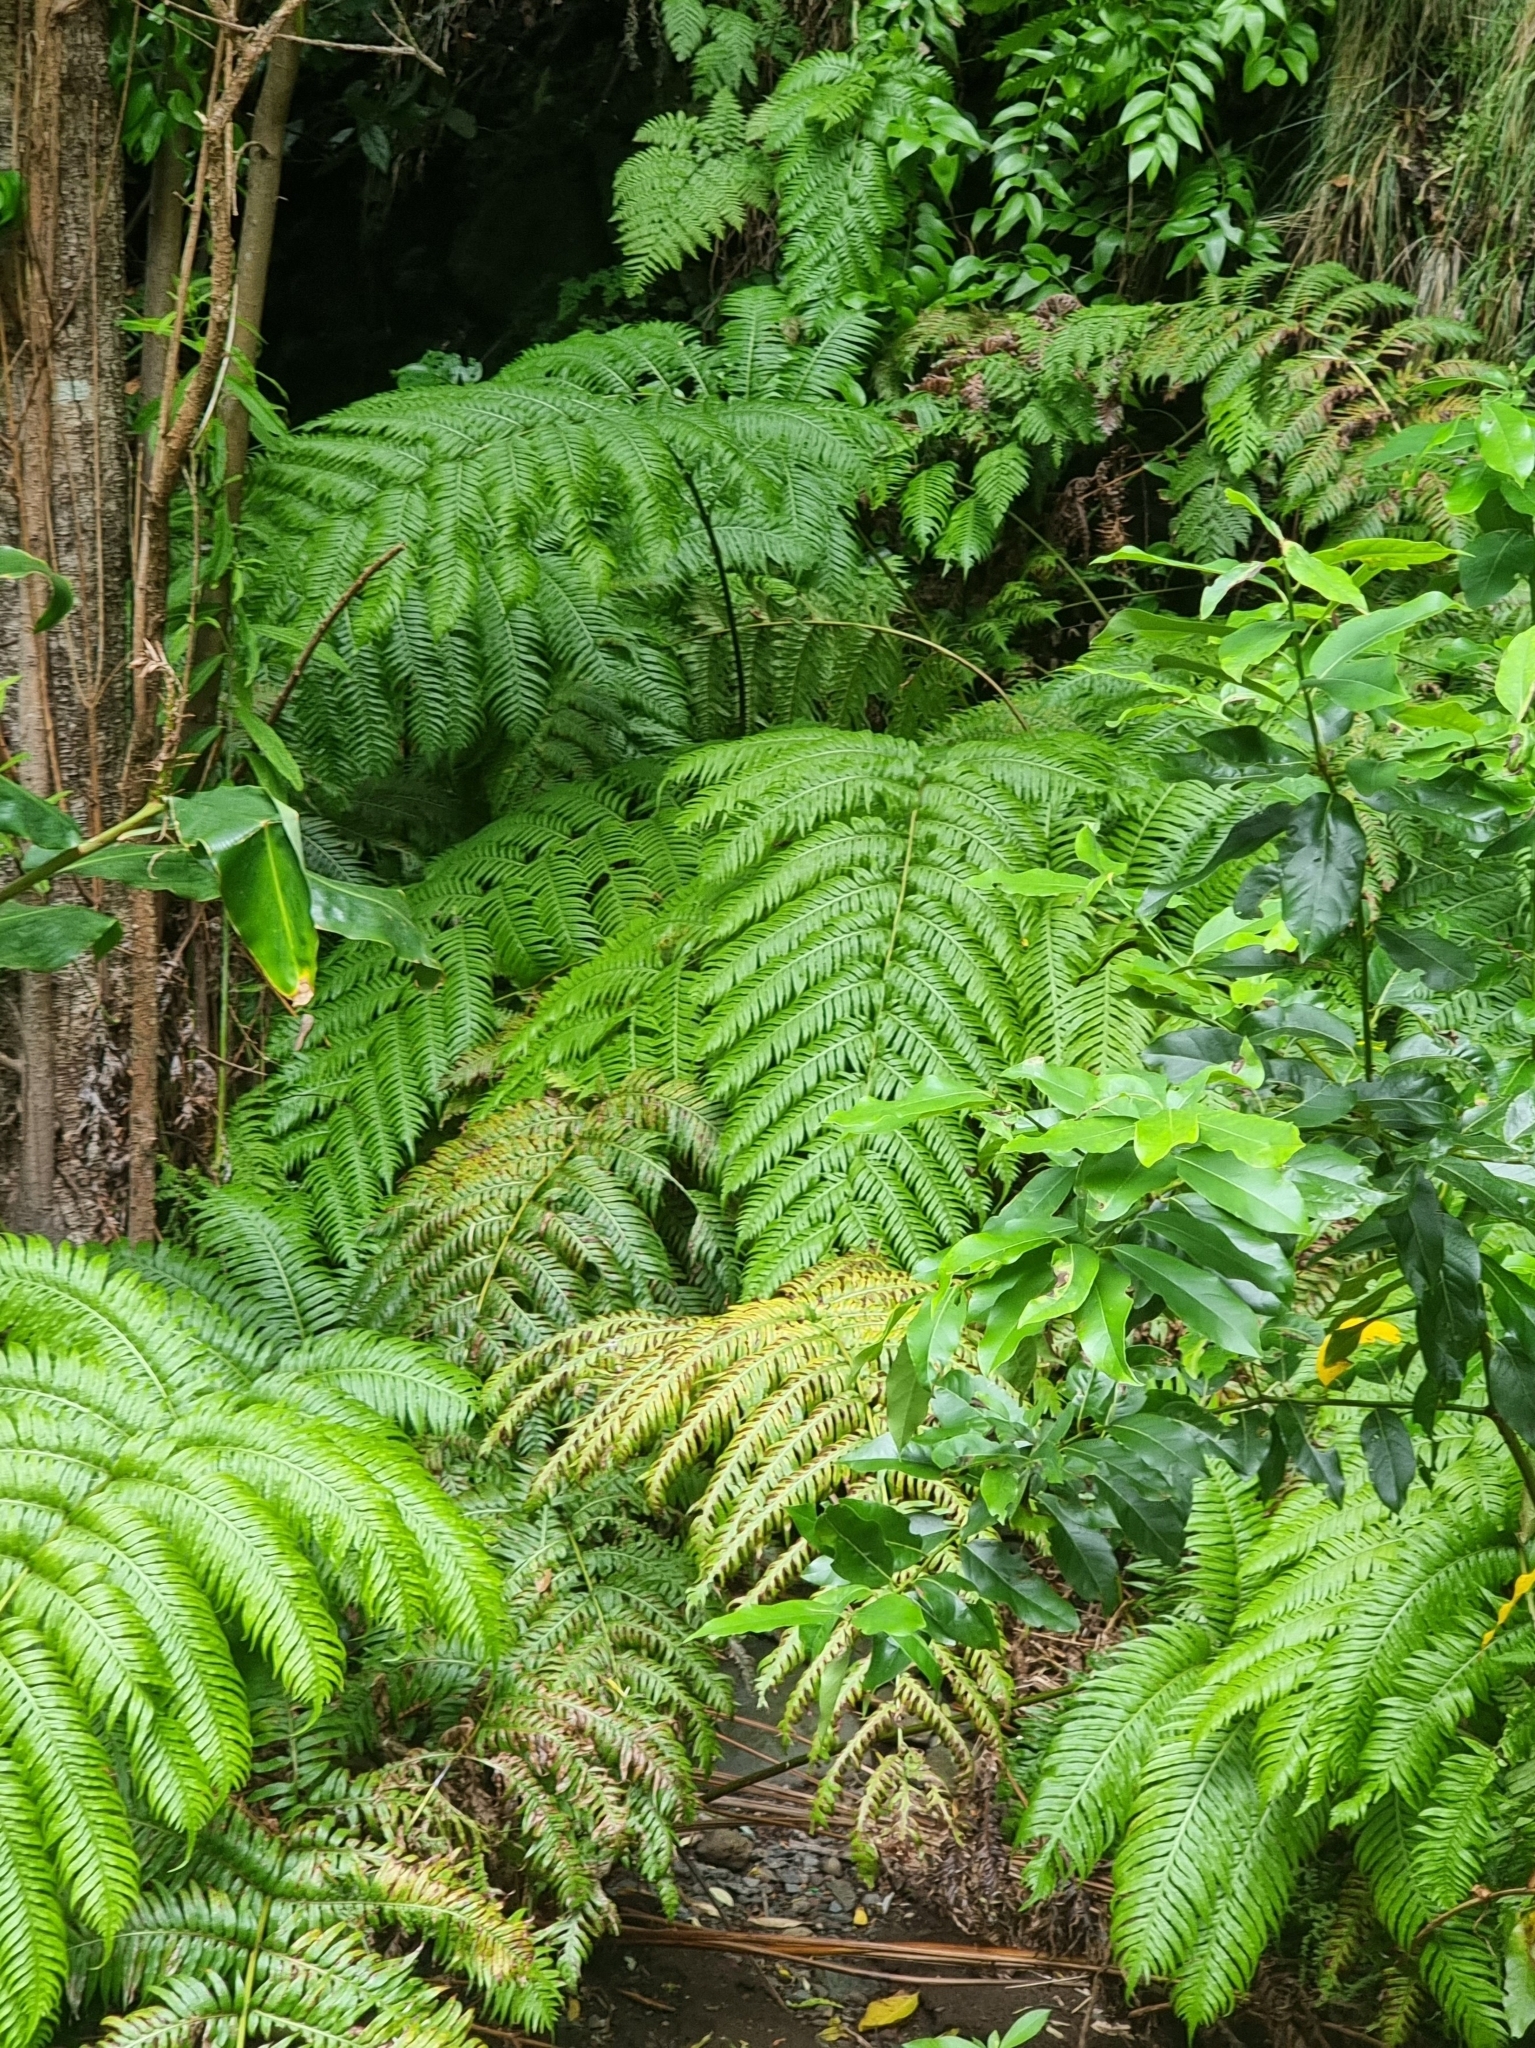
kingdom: Plantae
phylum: Tracheophyta
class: Polypodiopsida
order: Polypodiales
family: Blechnaceae
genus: Woodwardia
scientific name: Woodwardia radicans
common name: Rooting chainfern
